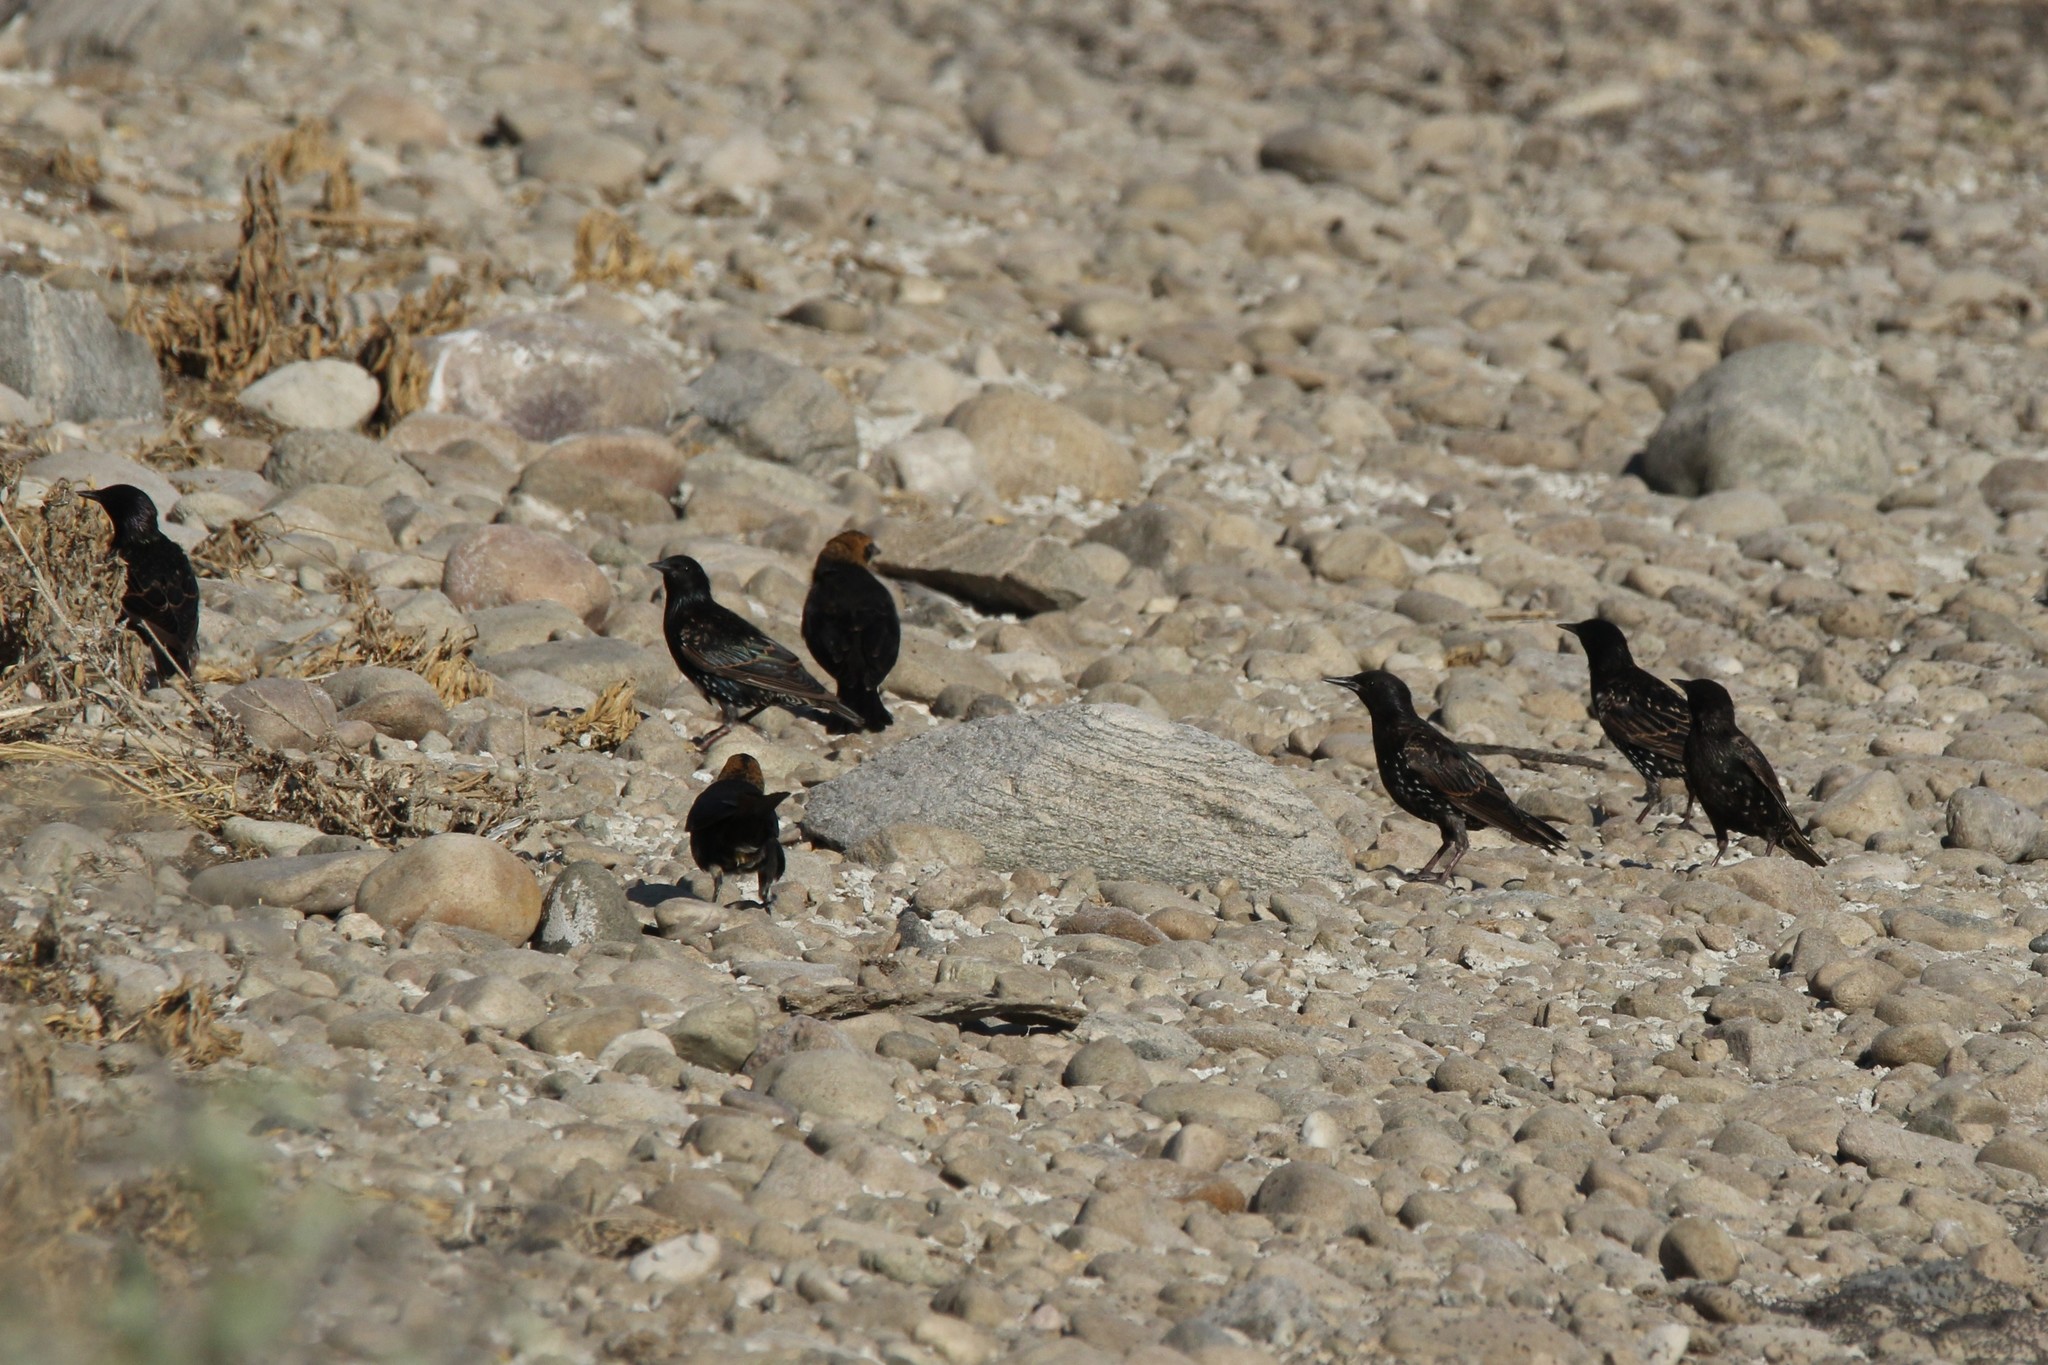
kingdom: Animalia
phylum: Chordata
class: Aves
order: Passeriformes
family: Sturnidae
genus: Sturnus
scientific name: Sturnus vulgaris
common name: Common starling
